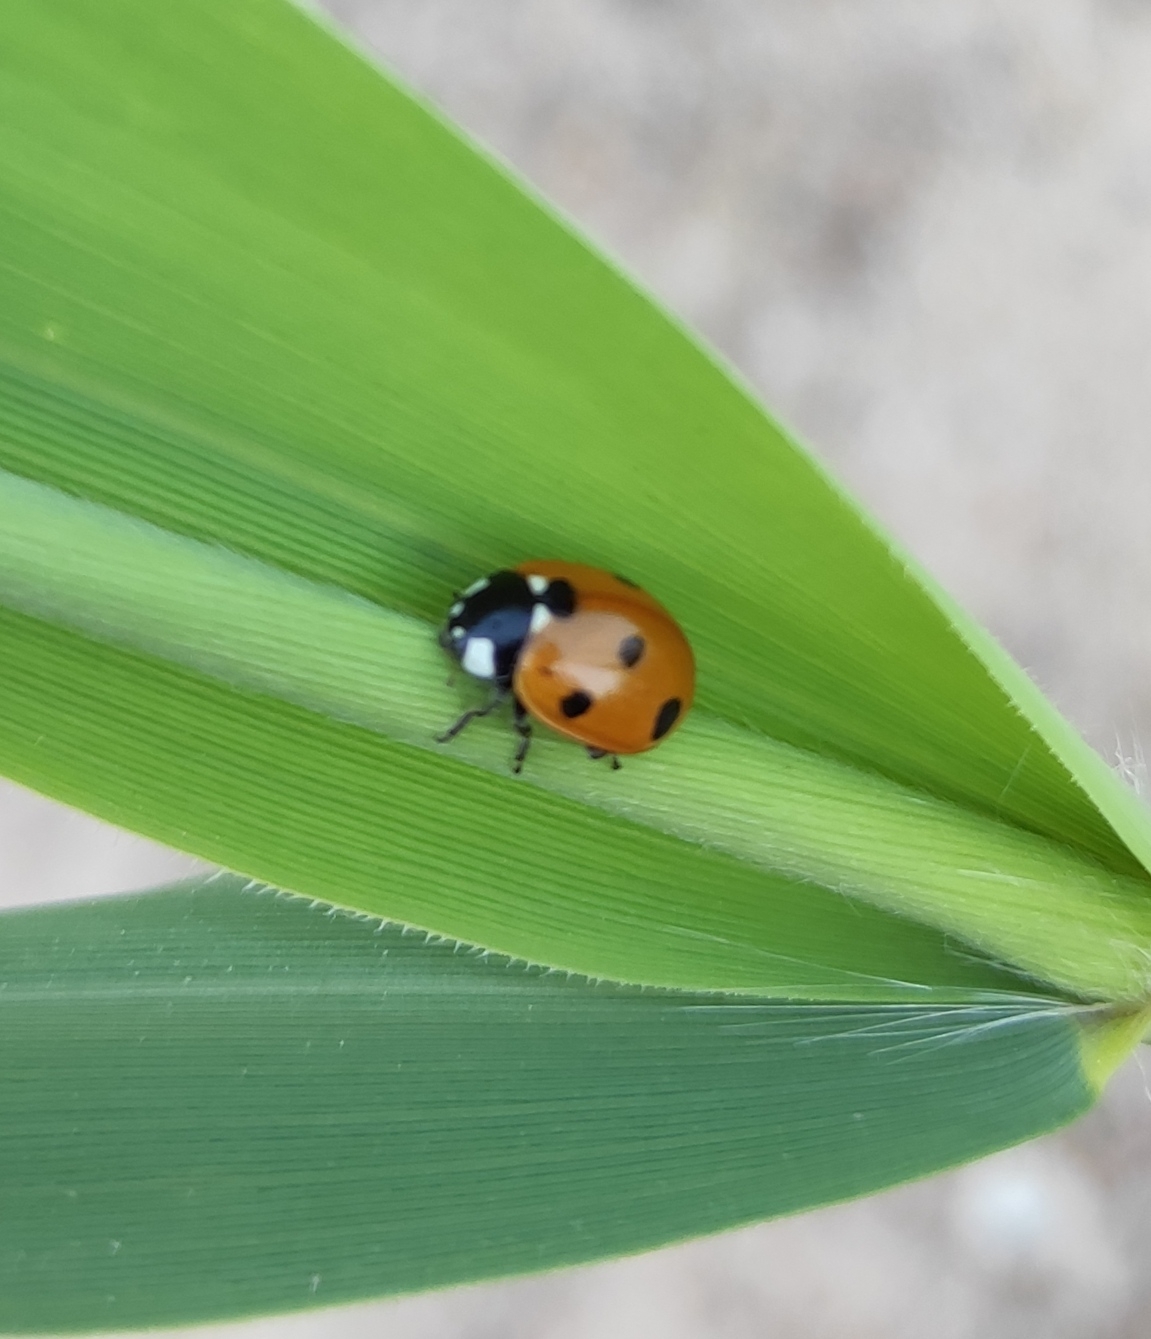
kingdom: Animalia
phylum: Arthropoda
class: Insecta
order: Coleoptera
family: Coccinellidae
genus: Coccinella
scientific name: Coccinella septempunctata
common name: Sevenspotted lady beetle
